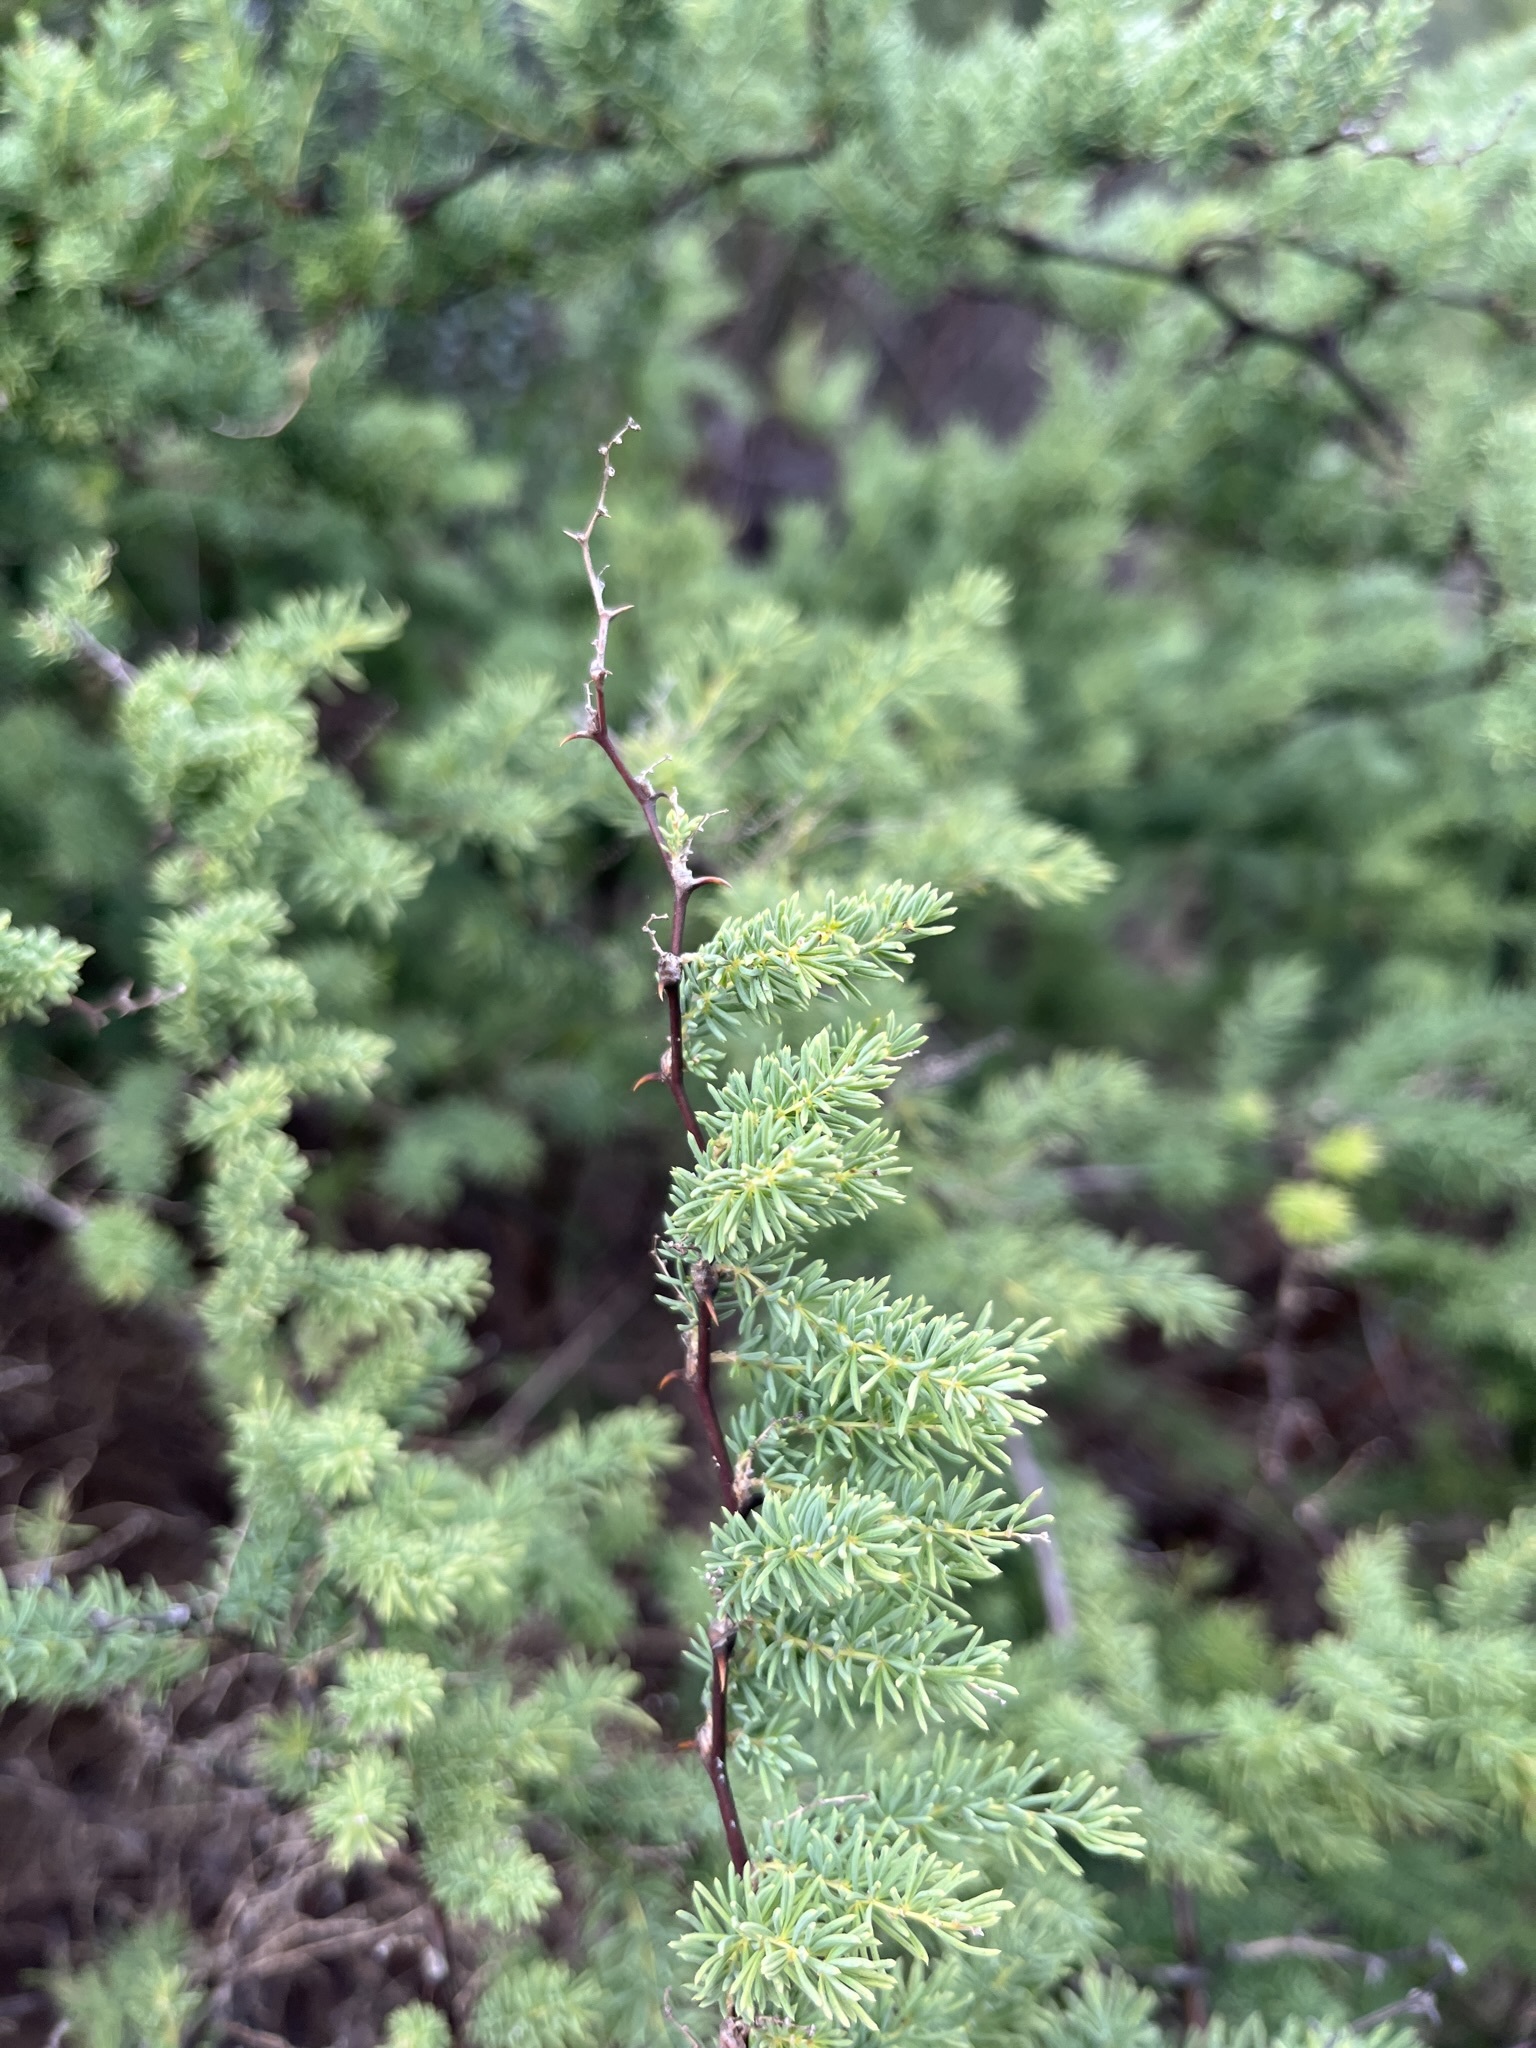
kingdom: Plantae
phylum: Tracheophyta
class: Liliopsida
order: Asparagales
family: Asparagaceae
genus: Asparagus
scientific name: Asparagus rubicundus
